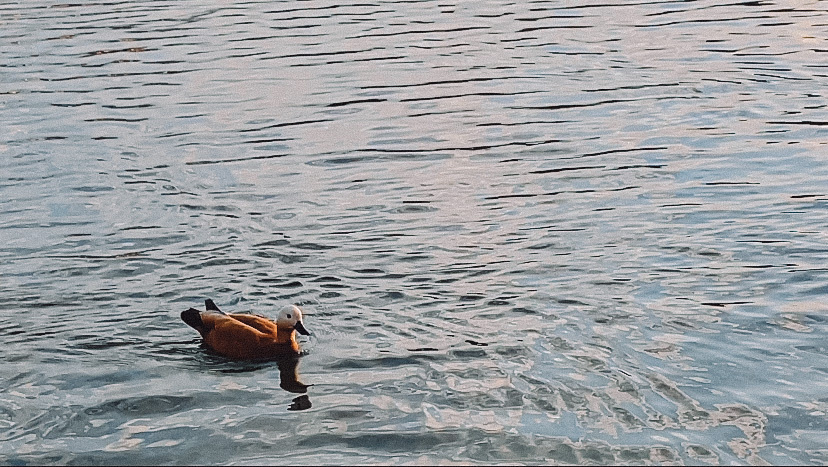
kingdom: Animalia
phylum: Chordata
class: Aves
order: Anseriformes
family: Anatidae
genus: Tadorna
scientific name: Tadorna ferruginea
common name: Ruddy shelduck
